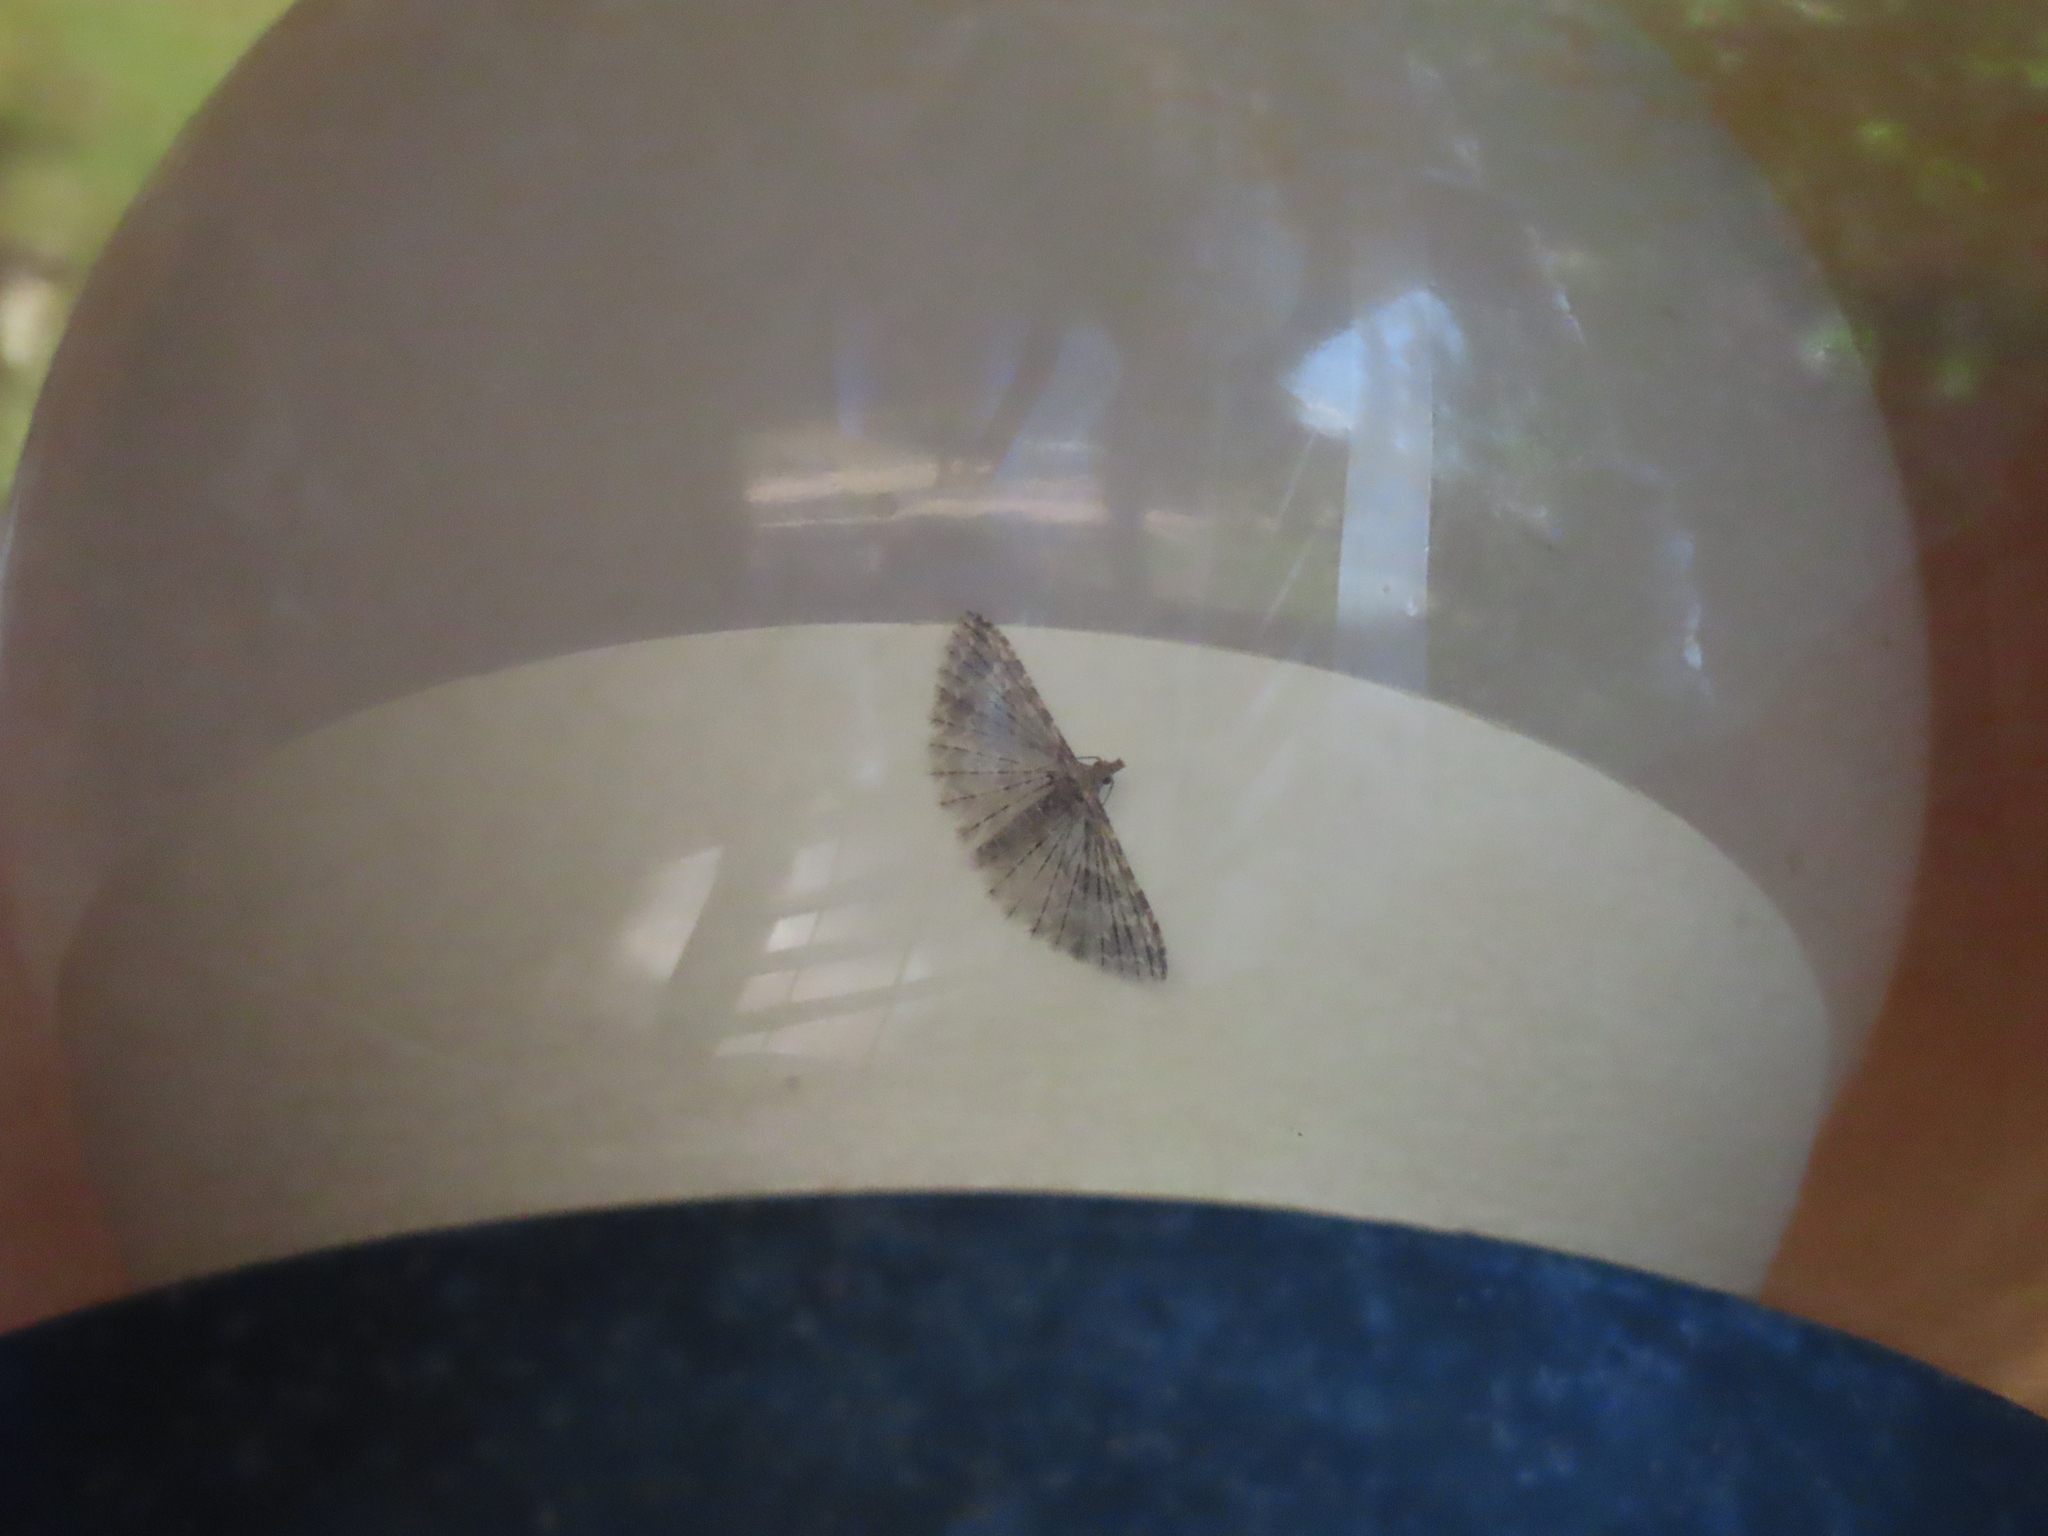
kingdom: Animalia
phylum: Arthropoda
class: Insecta
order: Lepidoptera
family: Alucitidae
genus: Alucita
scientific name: Alucita montana
